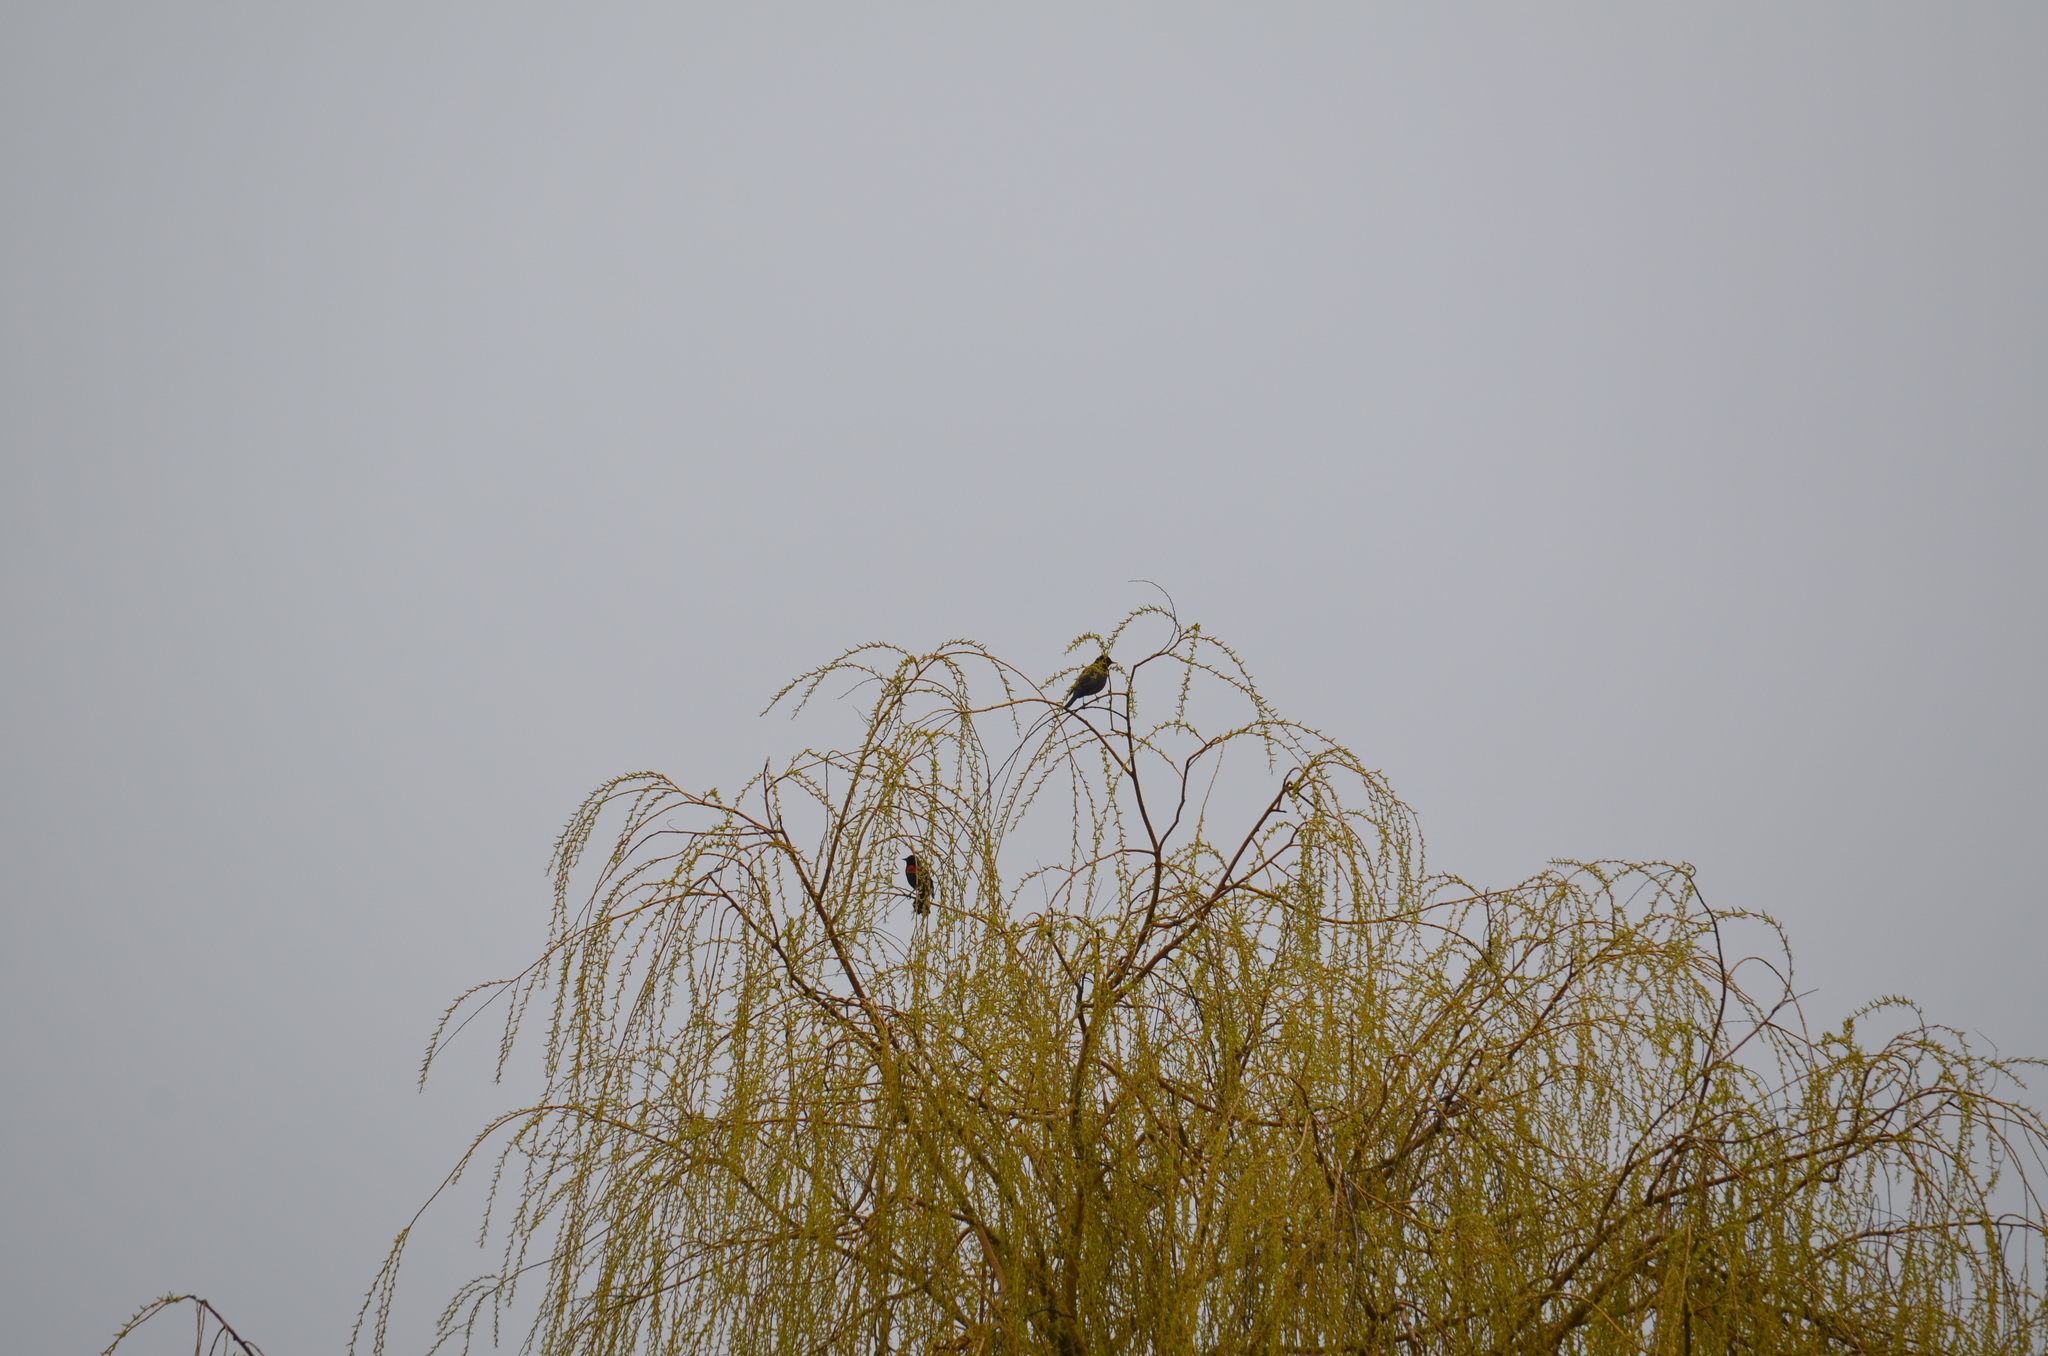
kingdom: Animalia
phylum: Chordata
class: Aves
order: Passeriformes
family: Icteridae
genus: Agelaius
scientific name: Agelaius phoeniceus
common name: Red-winged blackbird
